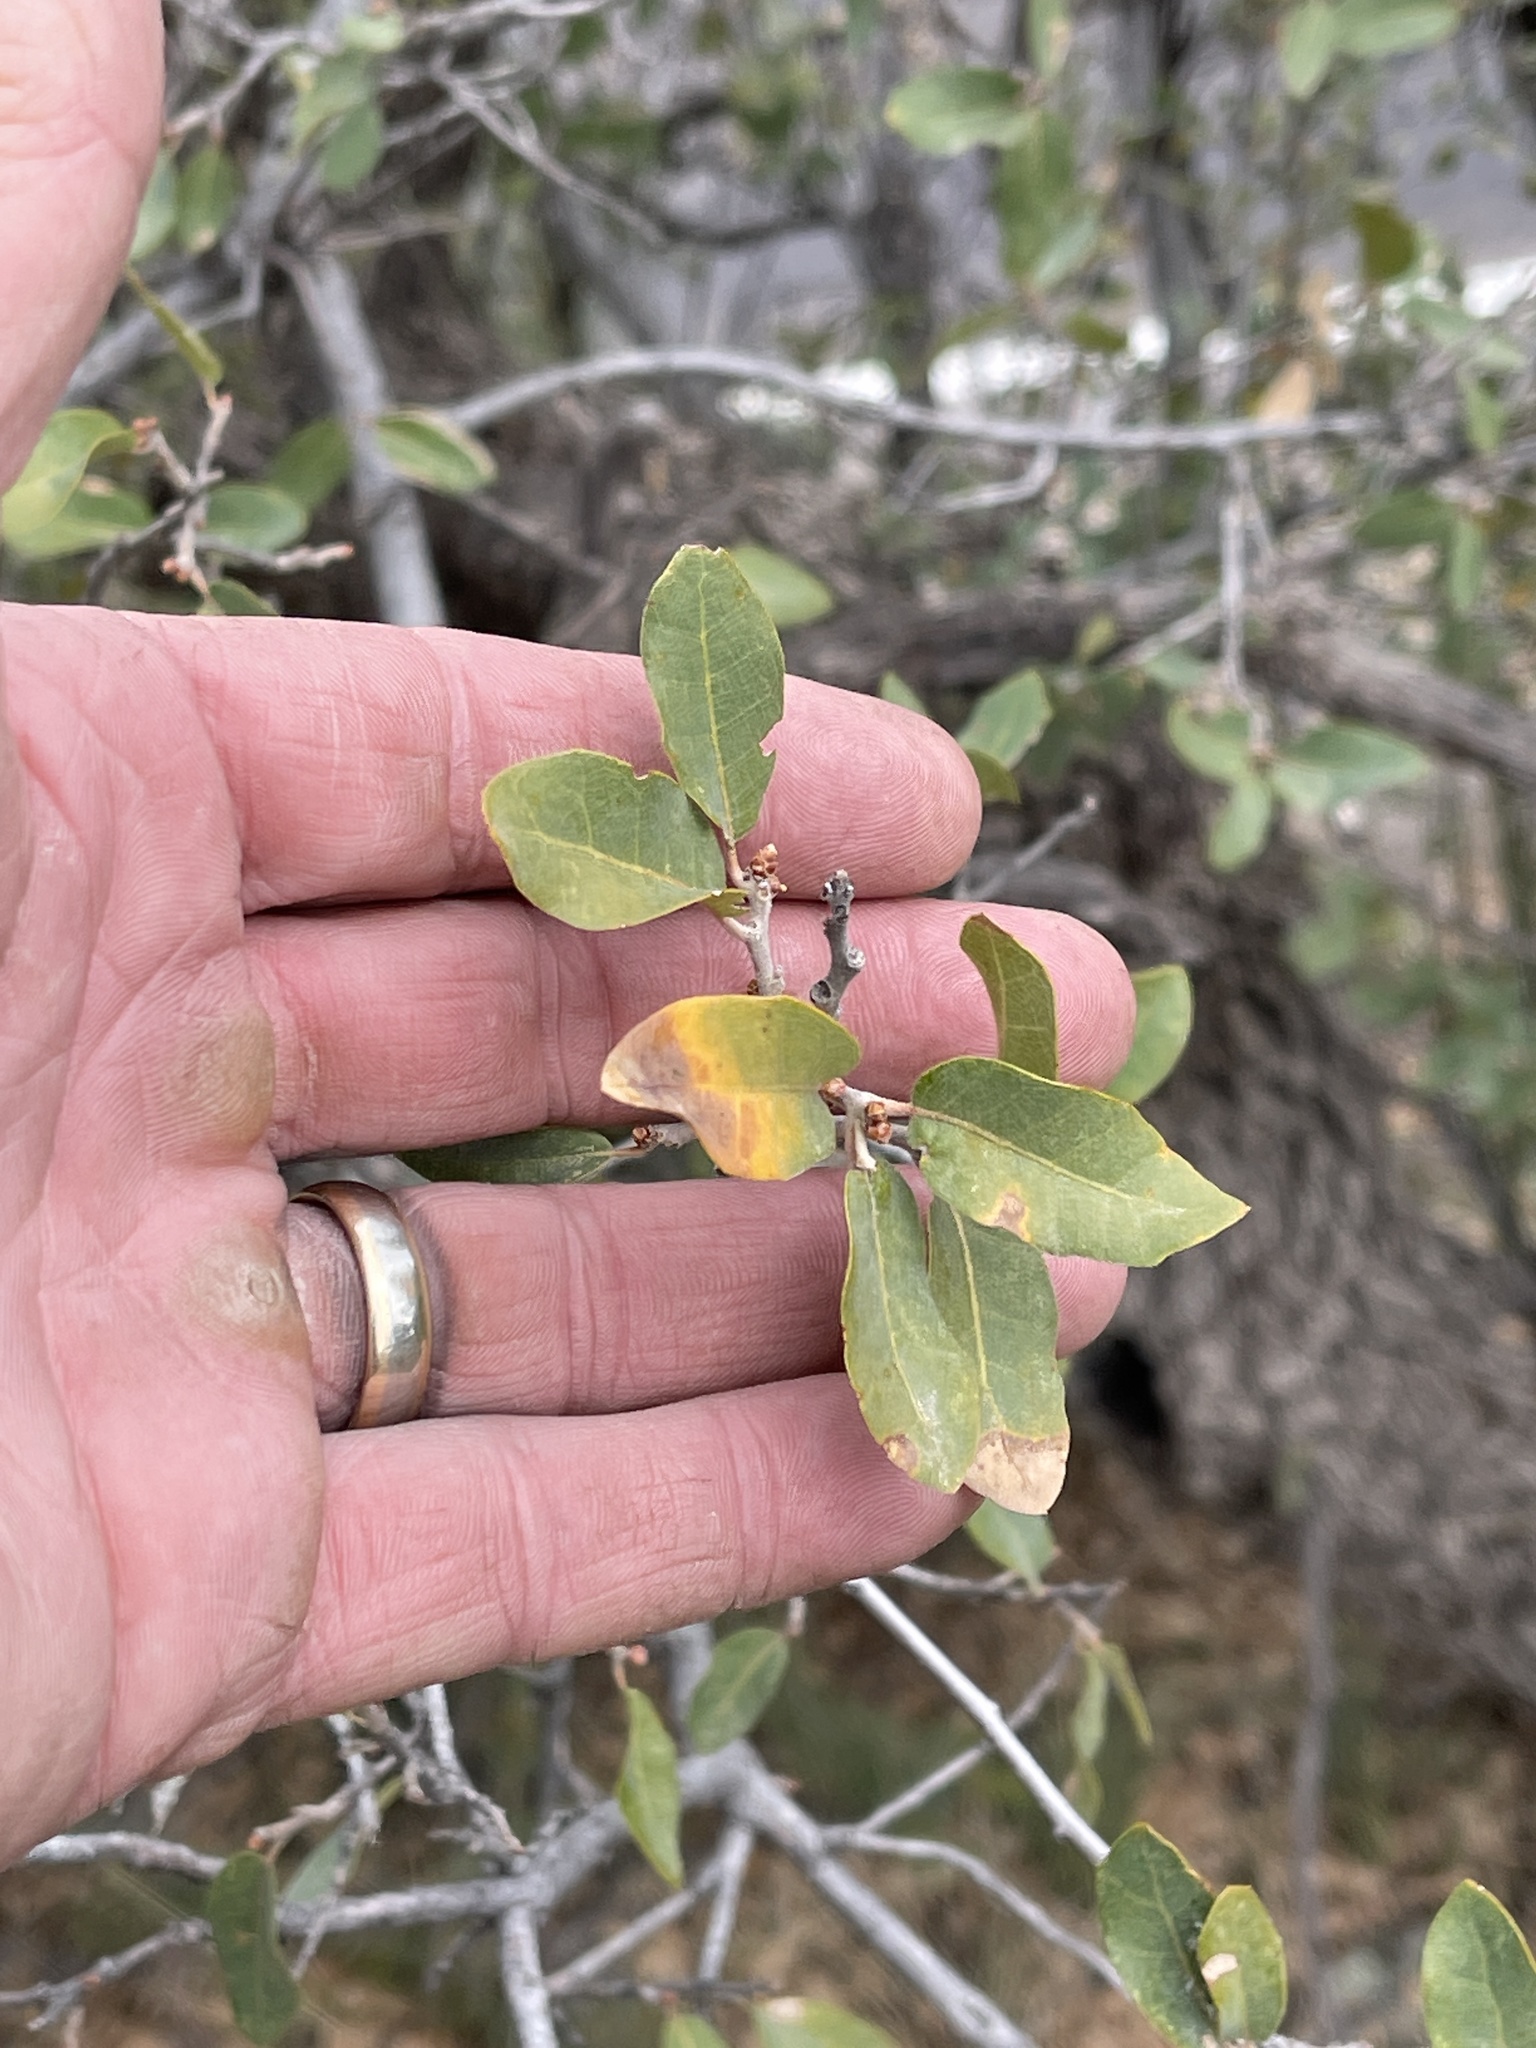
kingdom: Plantae
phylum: Tracheophyta
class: Magnoliopsida
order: Fagales
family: Fagaceae
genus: Quercus
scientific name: Quercus emoryi
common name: Emory oak
